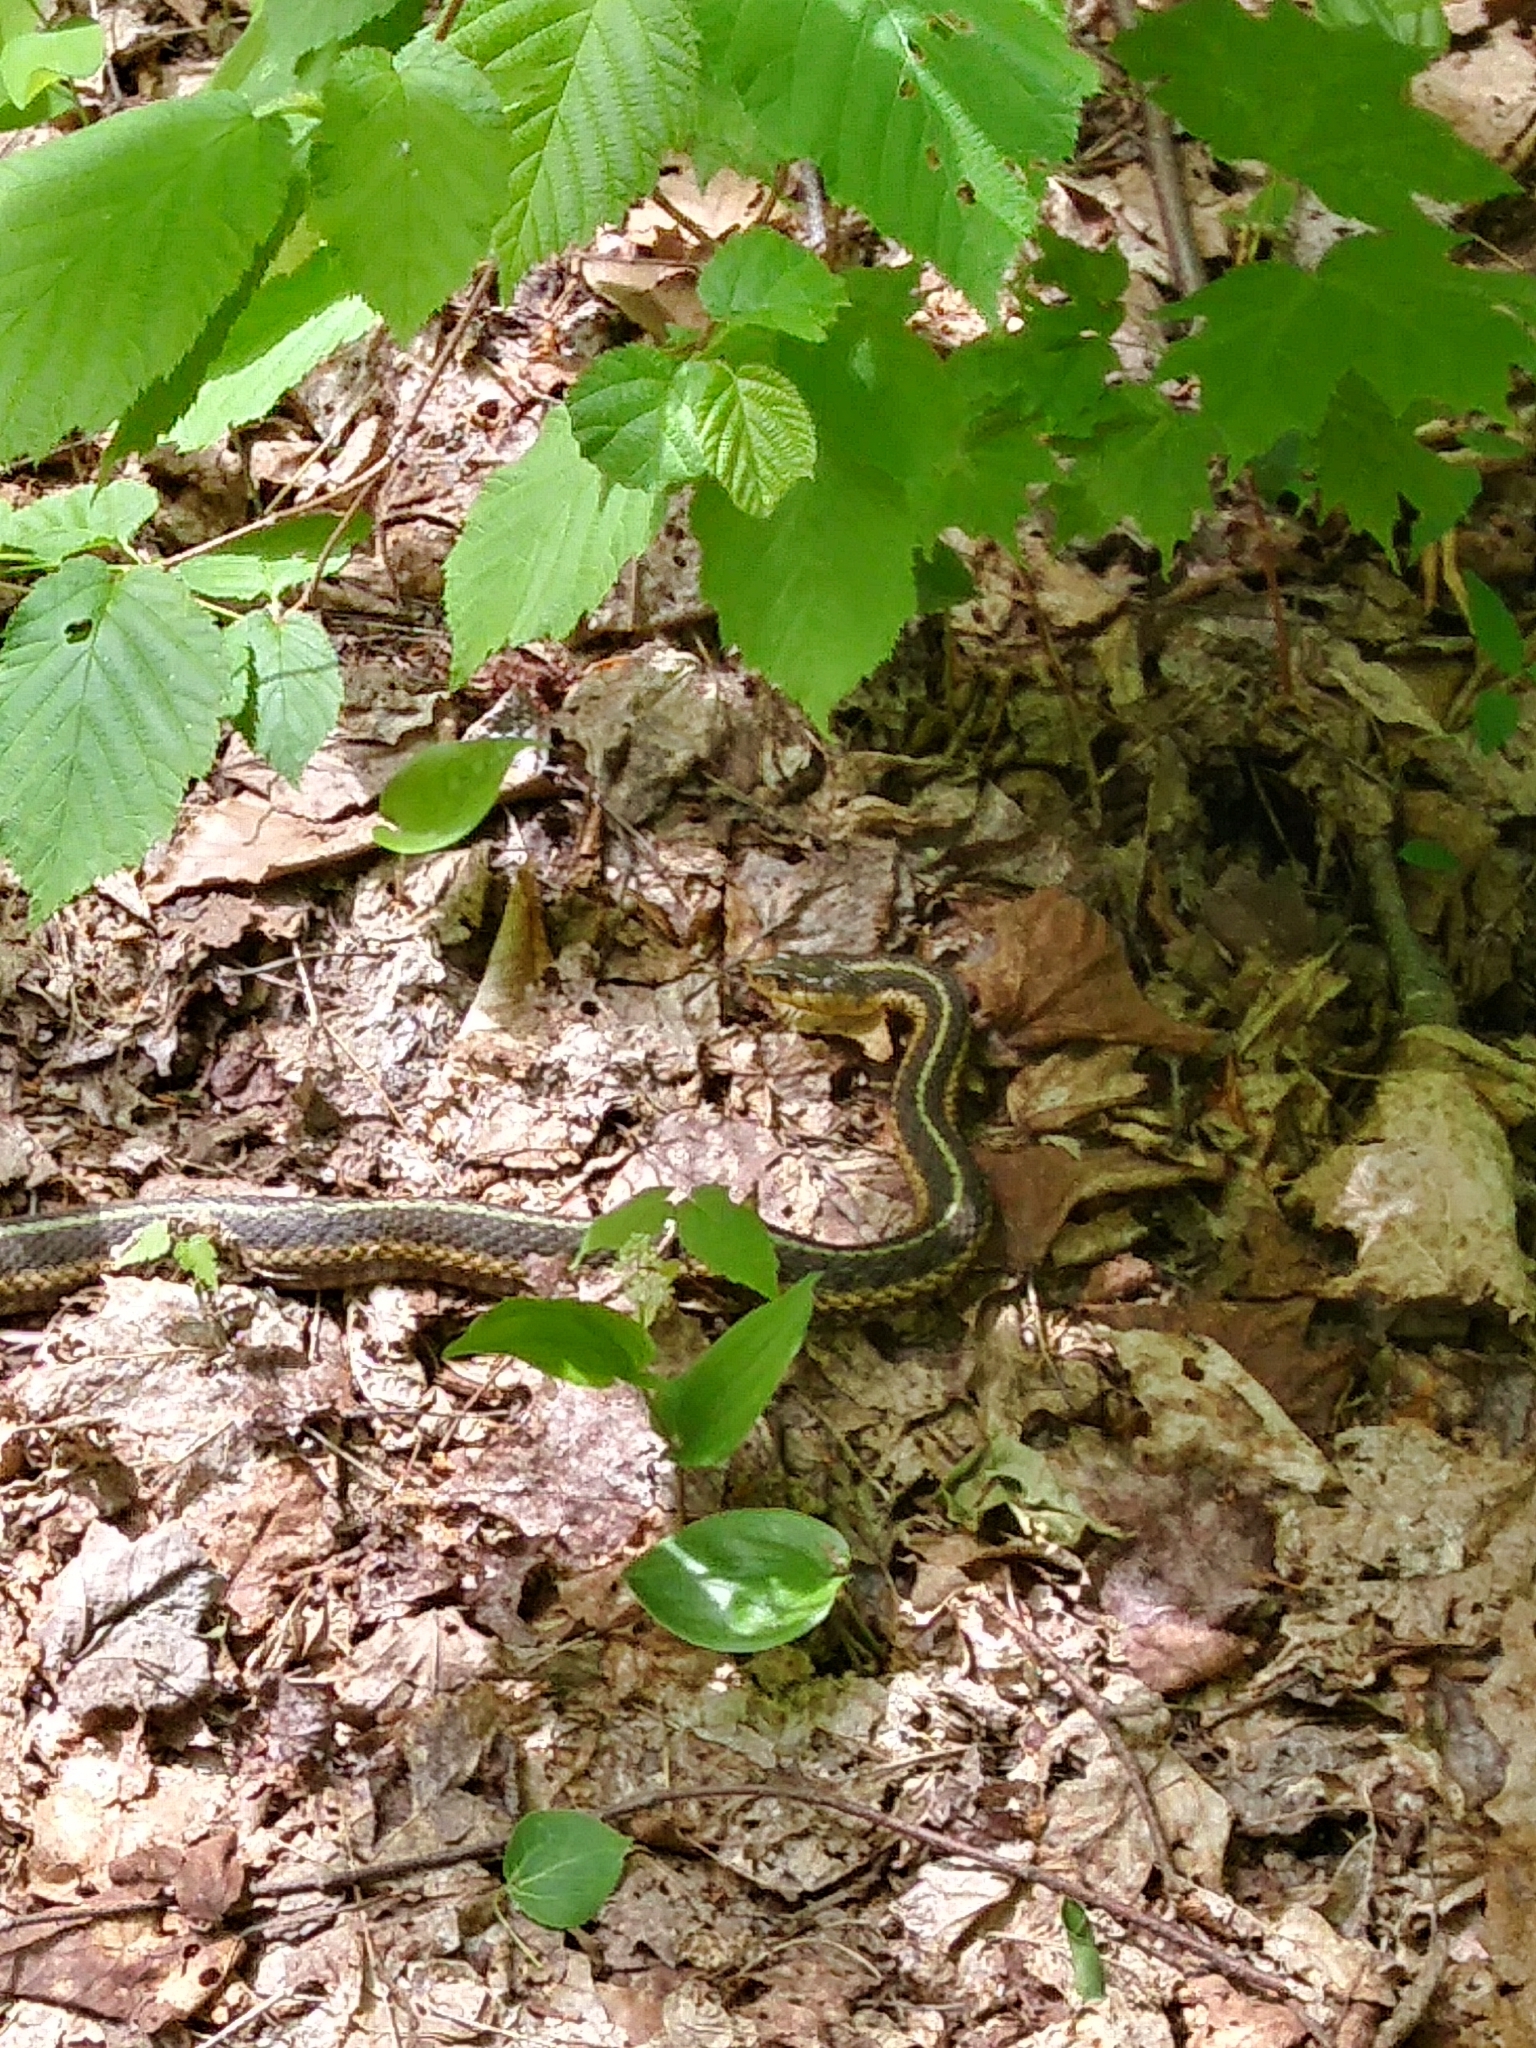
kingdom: Animalia
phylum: Chordata
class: Squamata
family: Colubridae
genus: Thamnophis
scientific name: Thamnophis sirtalis
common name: Common garter snake
